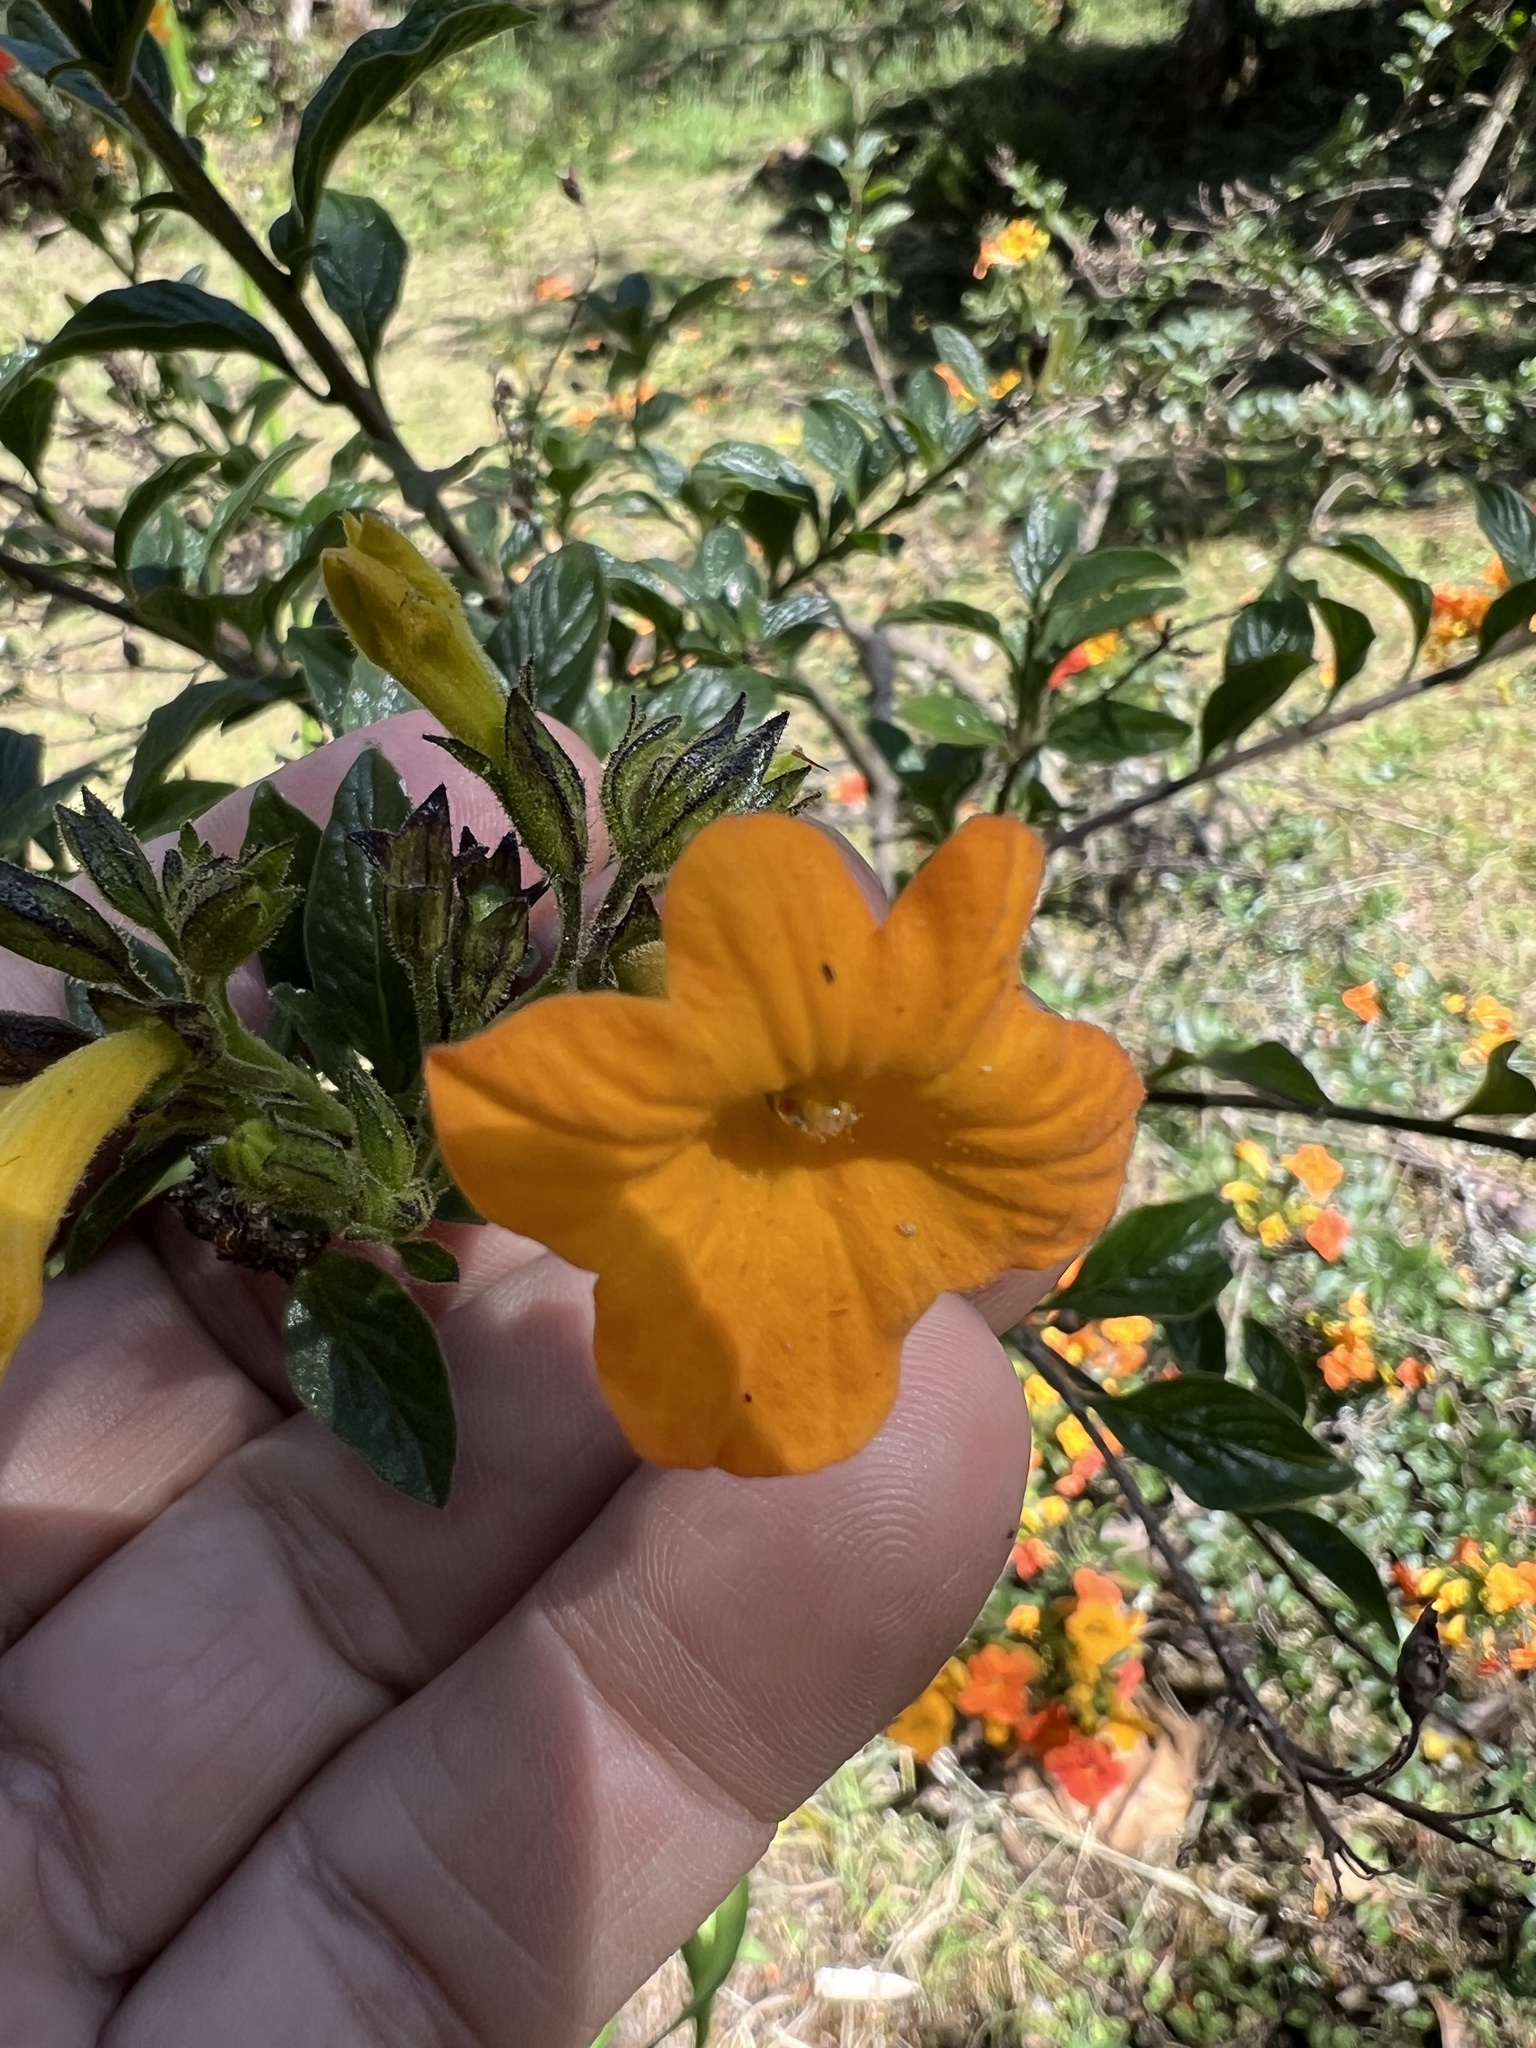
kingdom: Plantae
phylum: Tracheophyta
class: Magnoliopsida
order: Solanales
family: Solanaceae
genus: Streptosolen
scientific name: Streptosolen jamesonii
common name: Marmalade bush
